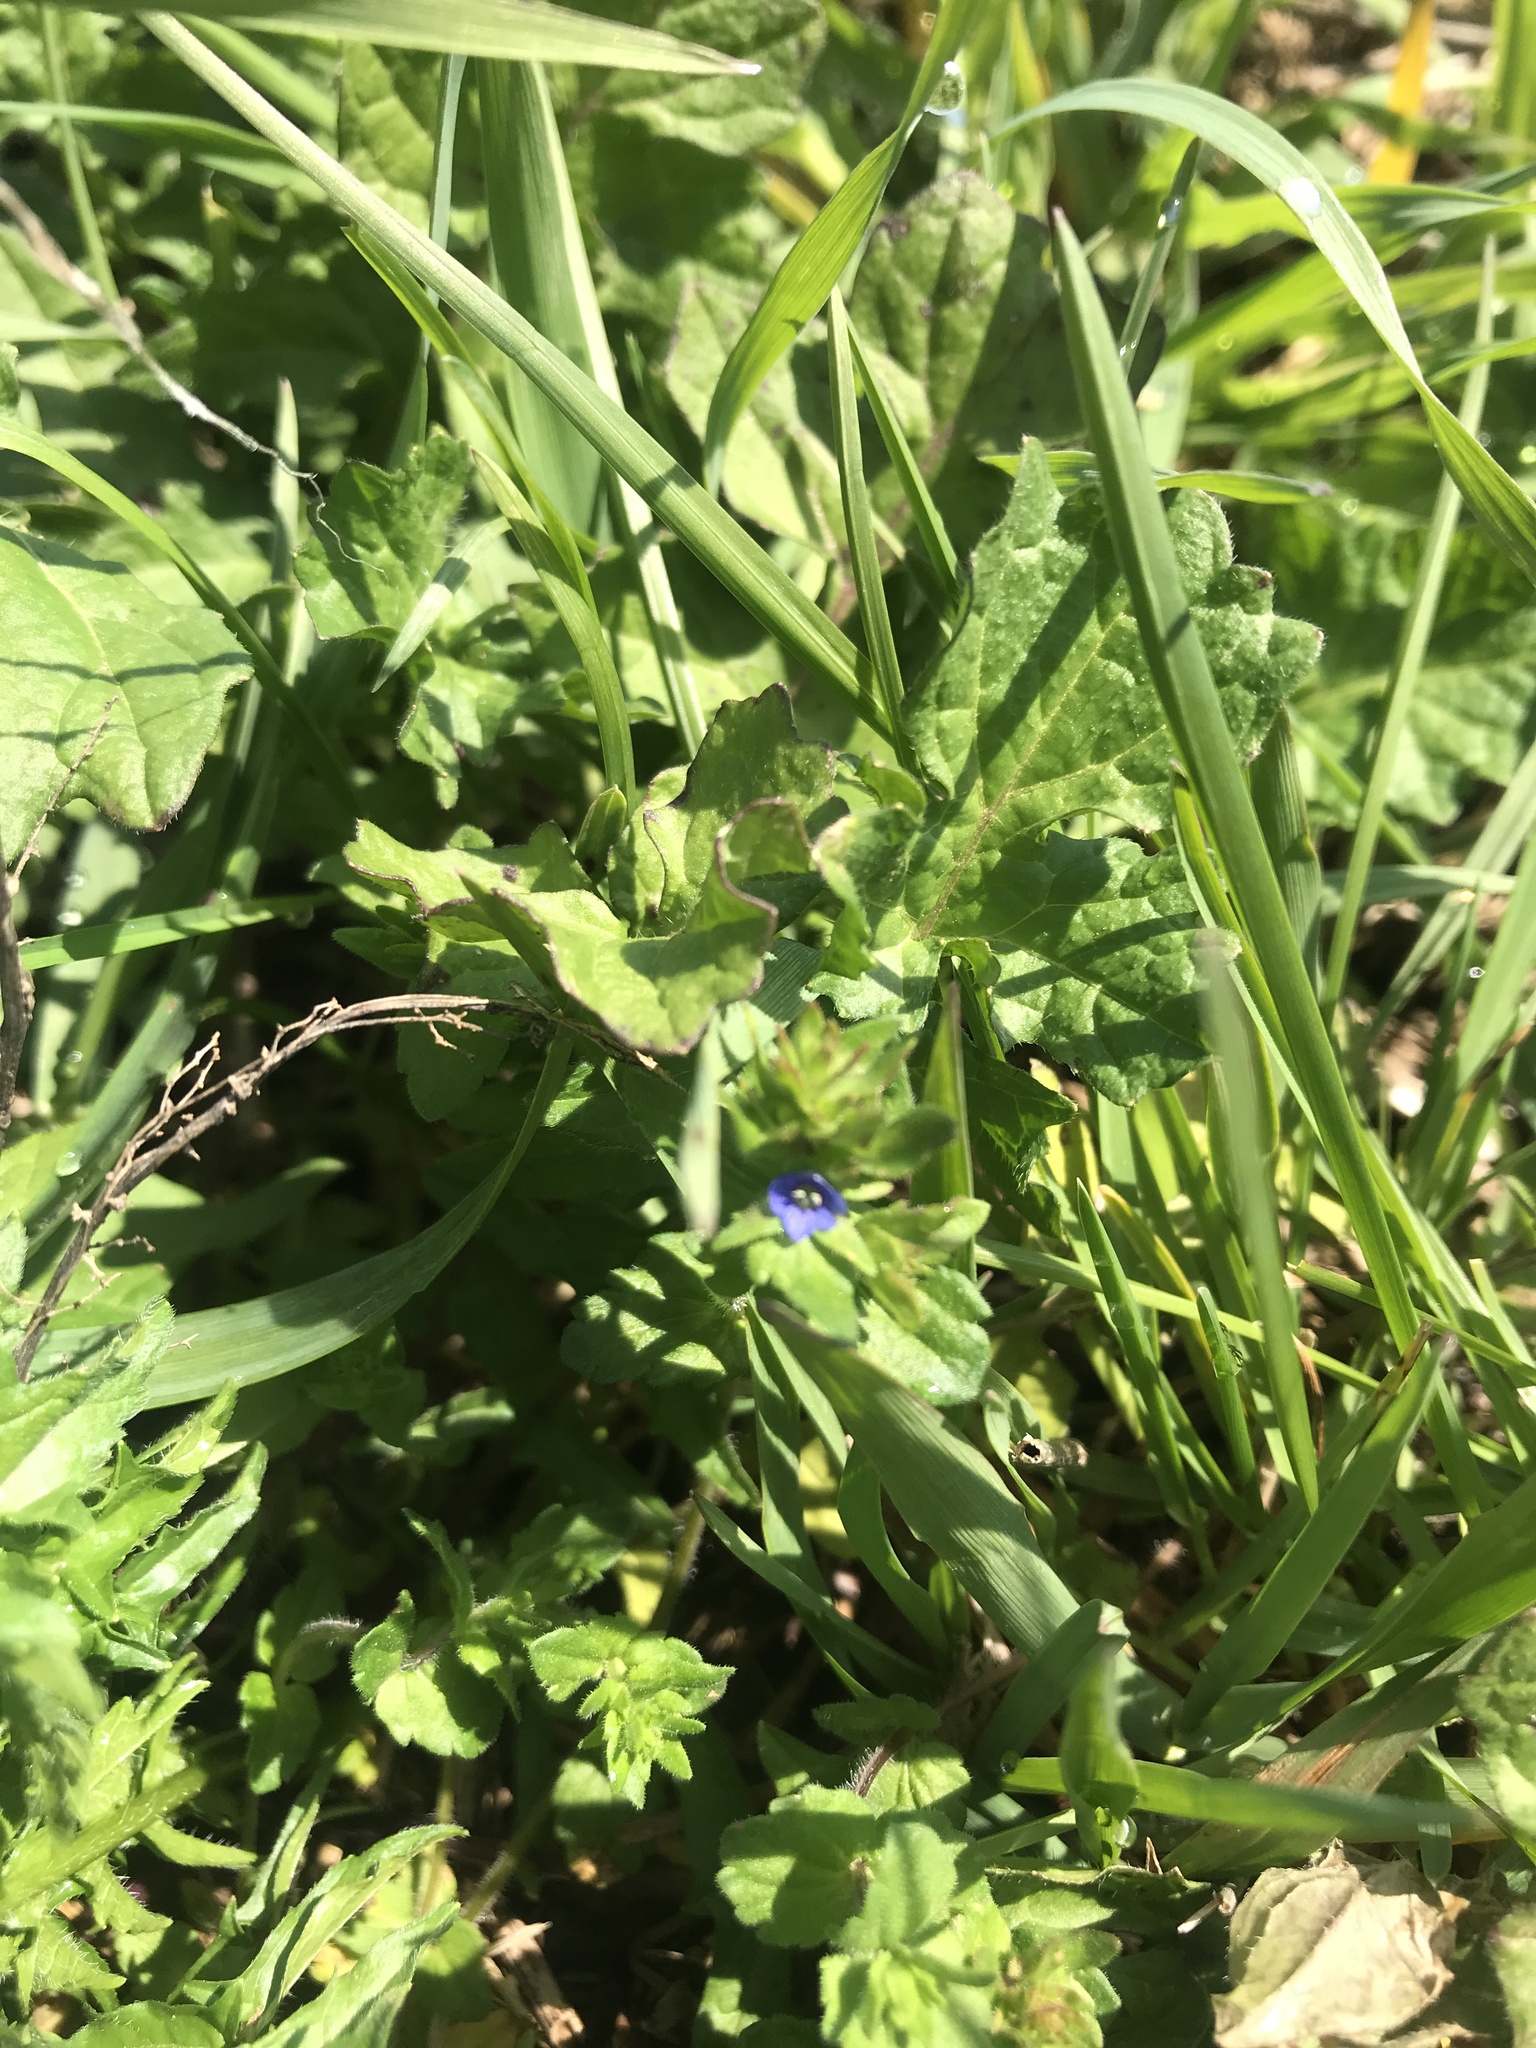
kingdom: Plantae
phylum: Tracheophyta
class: Magnoliopsida
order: Lamiales
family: Plantaginaceae
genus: Veronica
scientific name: Veronica arvensis
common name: Corn speedwell
